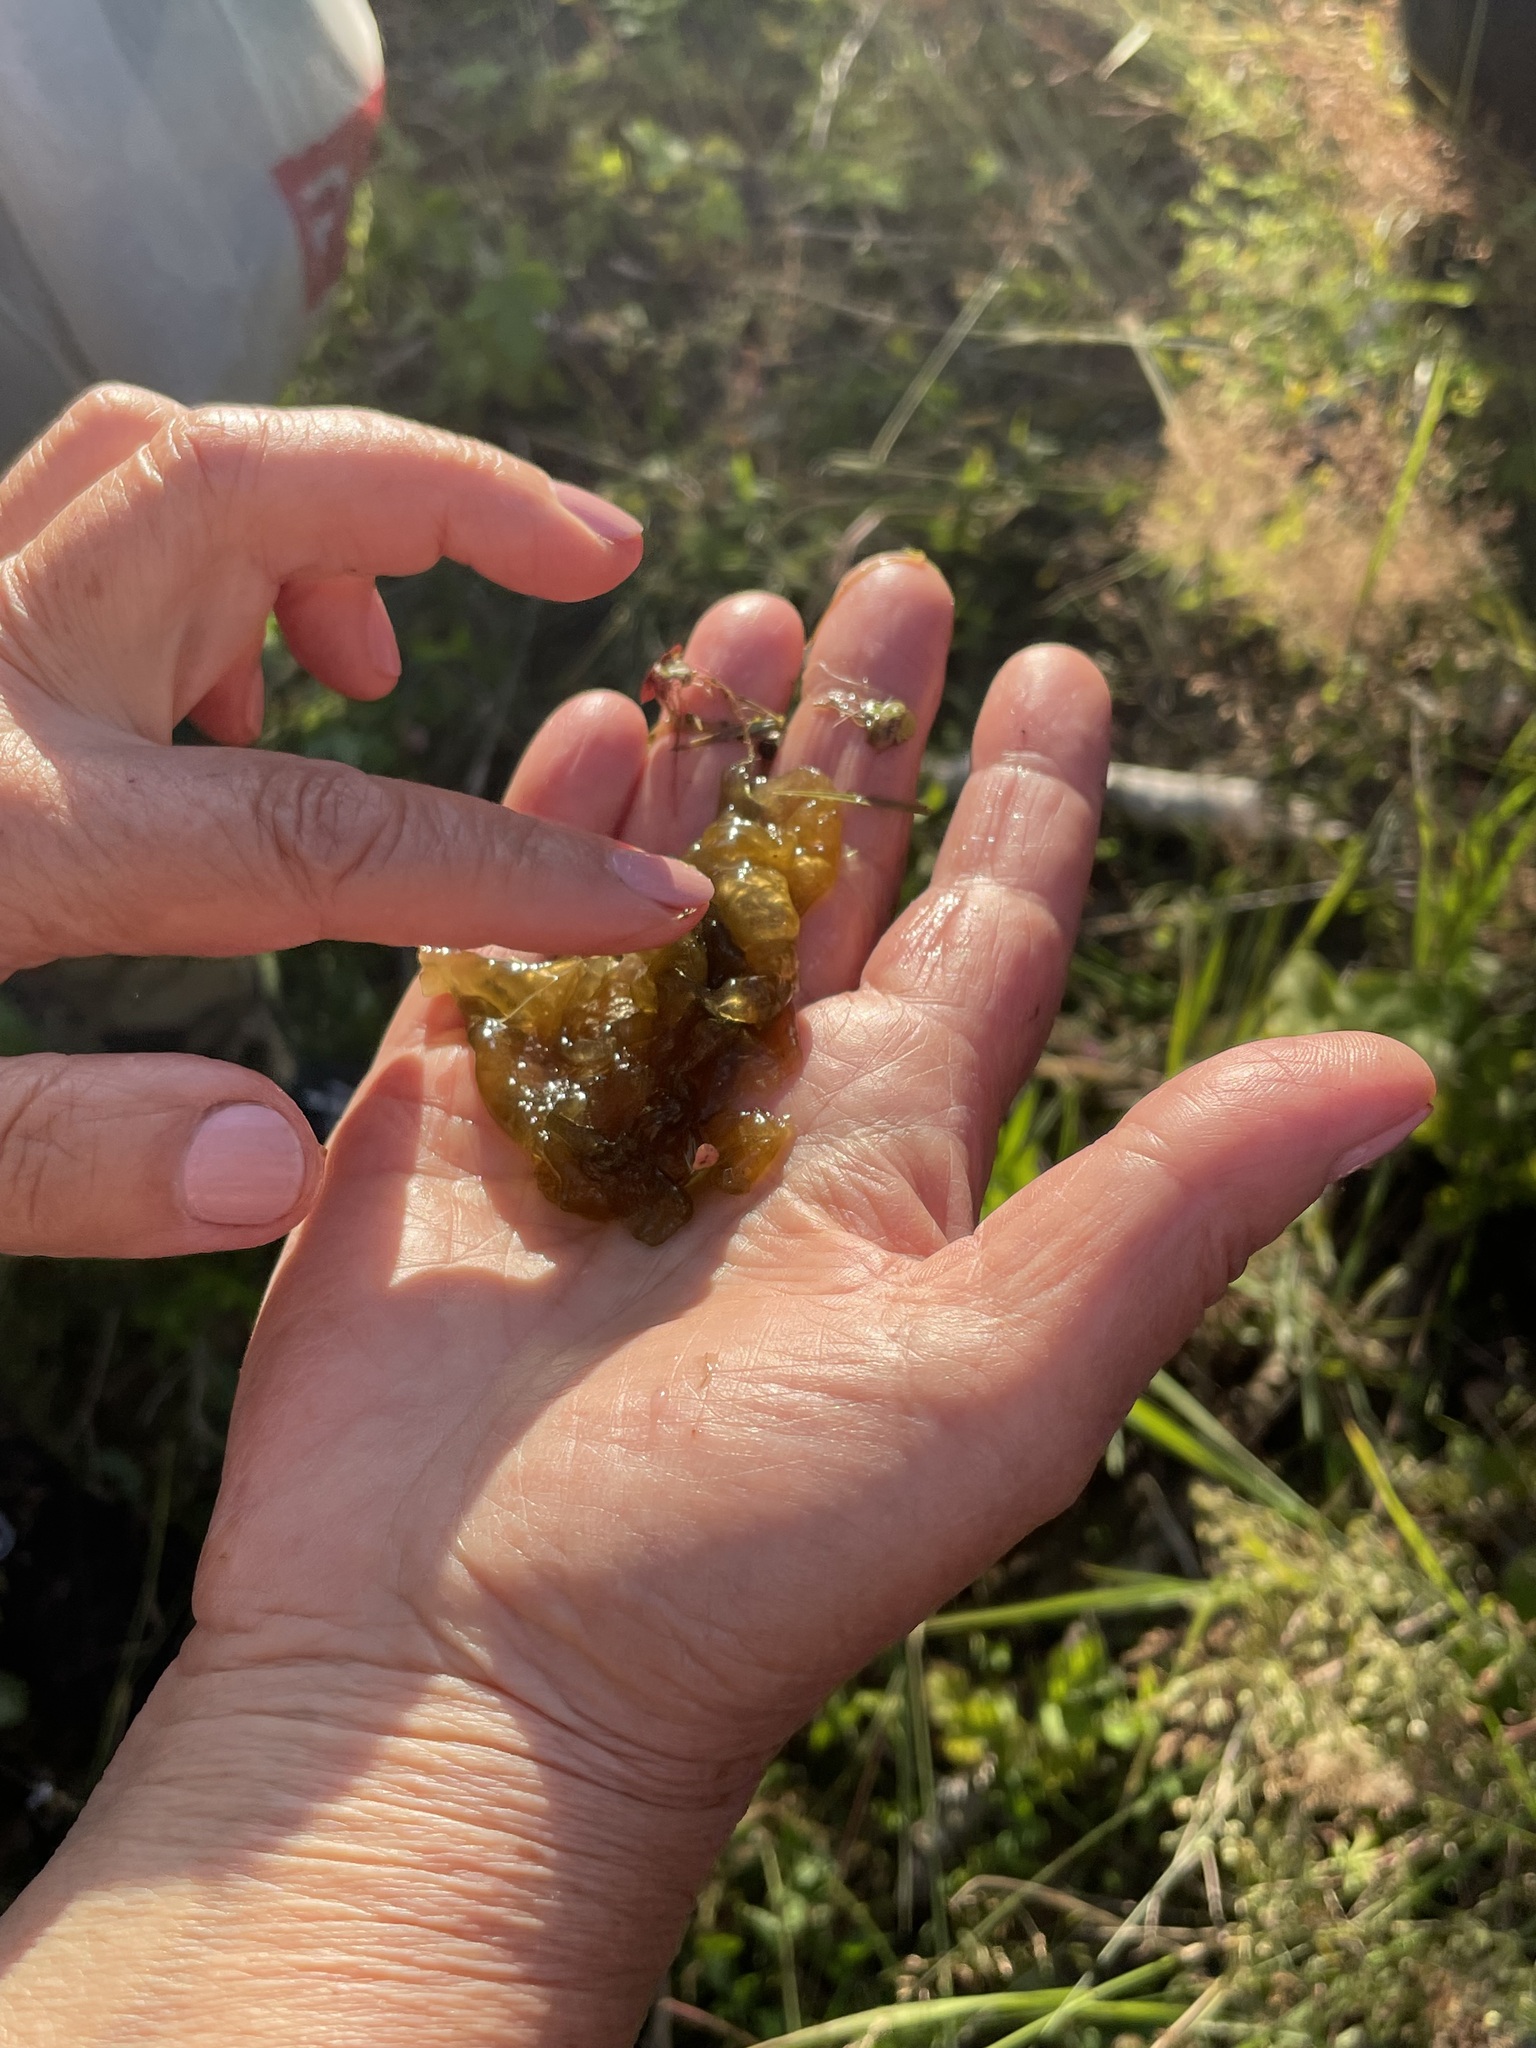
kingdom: Bacteria
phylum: Cyanobacteria
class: Cyanobacteriia
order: Cyanobacteriales
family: Nostocaceae
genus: Nostoc
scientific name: Nostoc commune
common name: Star jelly
